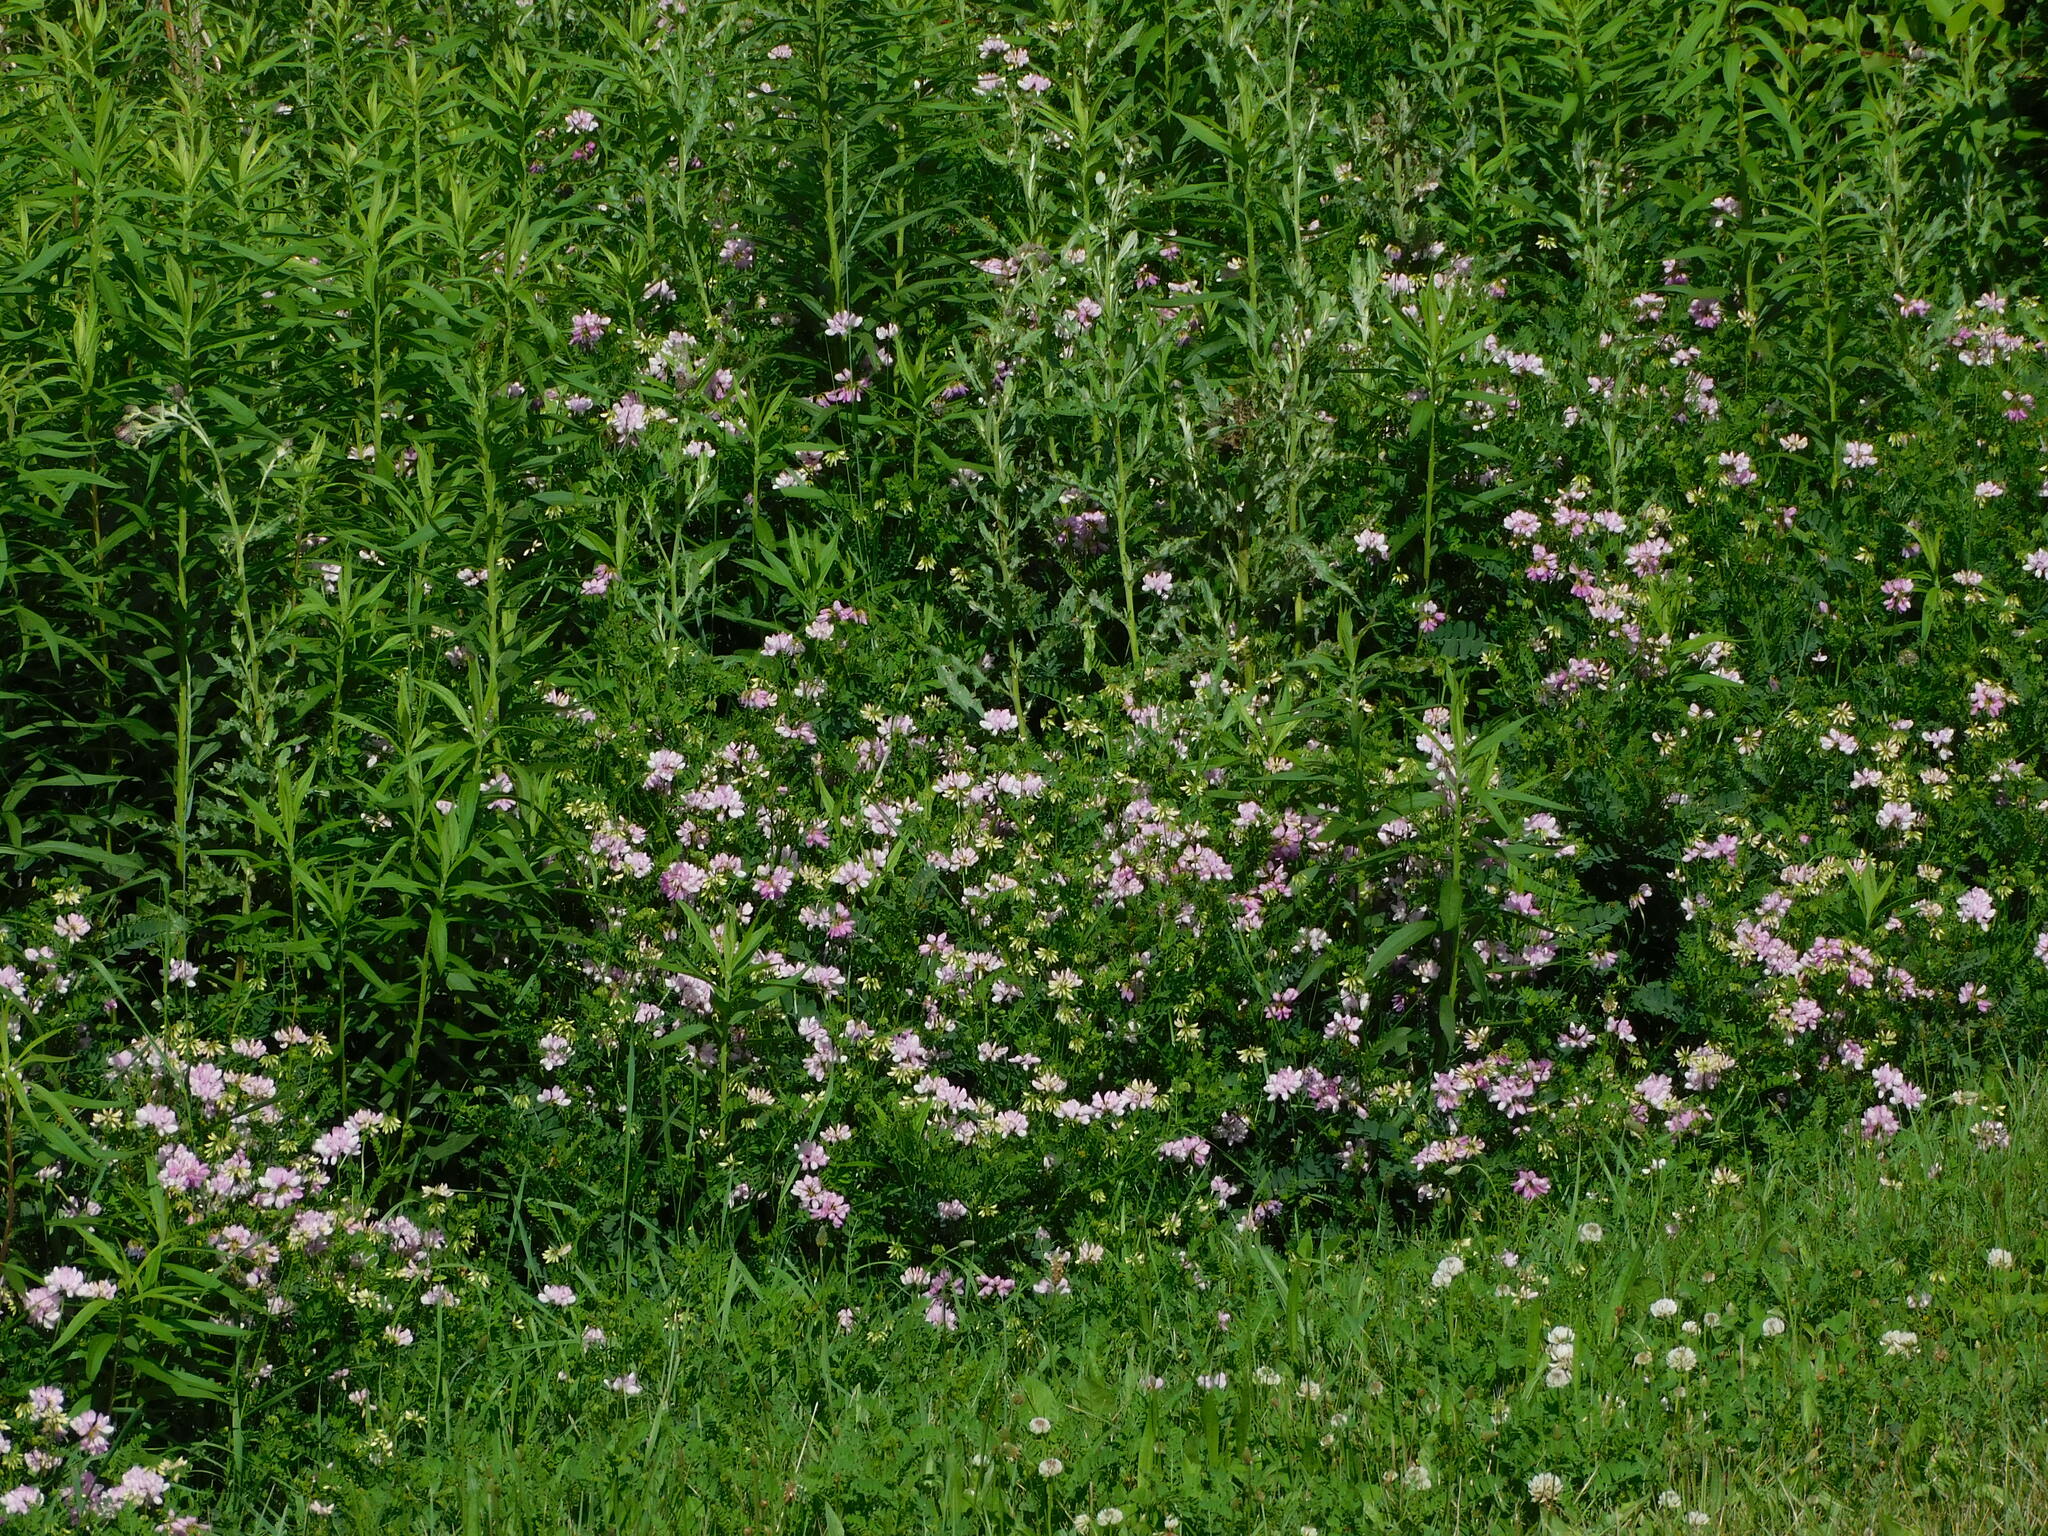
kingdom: Plantae
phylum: Tracheophyta
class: Magnoliopsida
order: Fabales
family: Fabaceae
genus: Coronilla
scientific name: Coronilla varia
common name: Crownvetch
